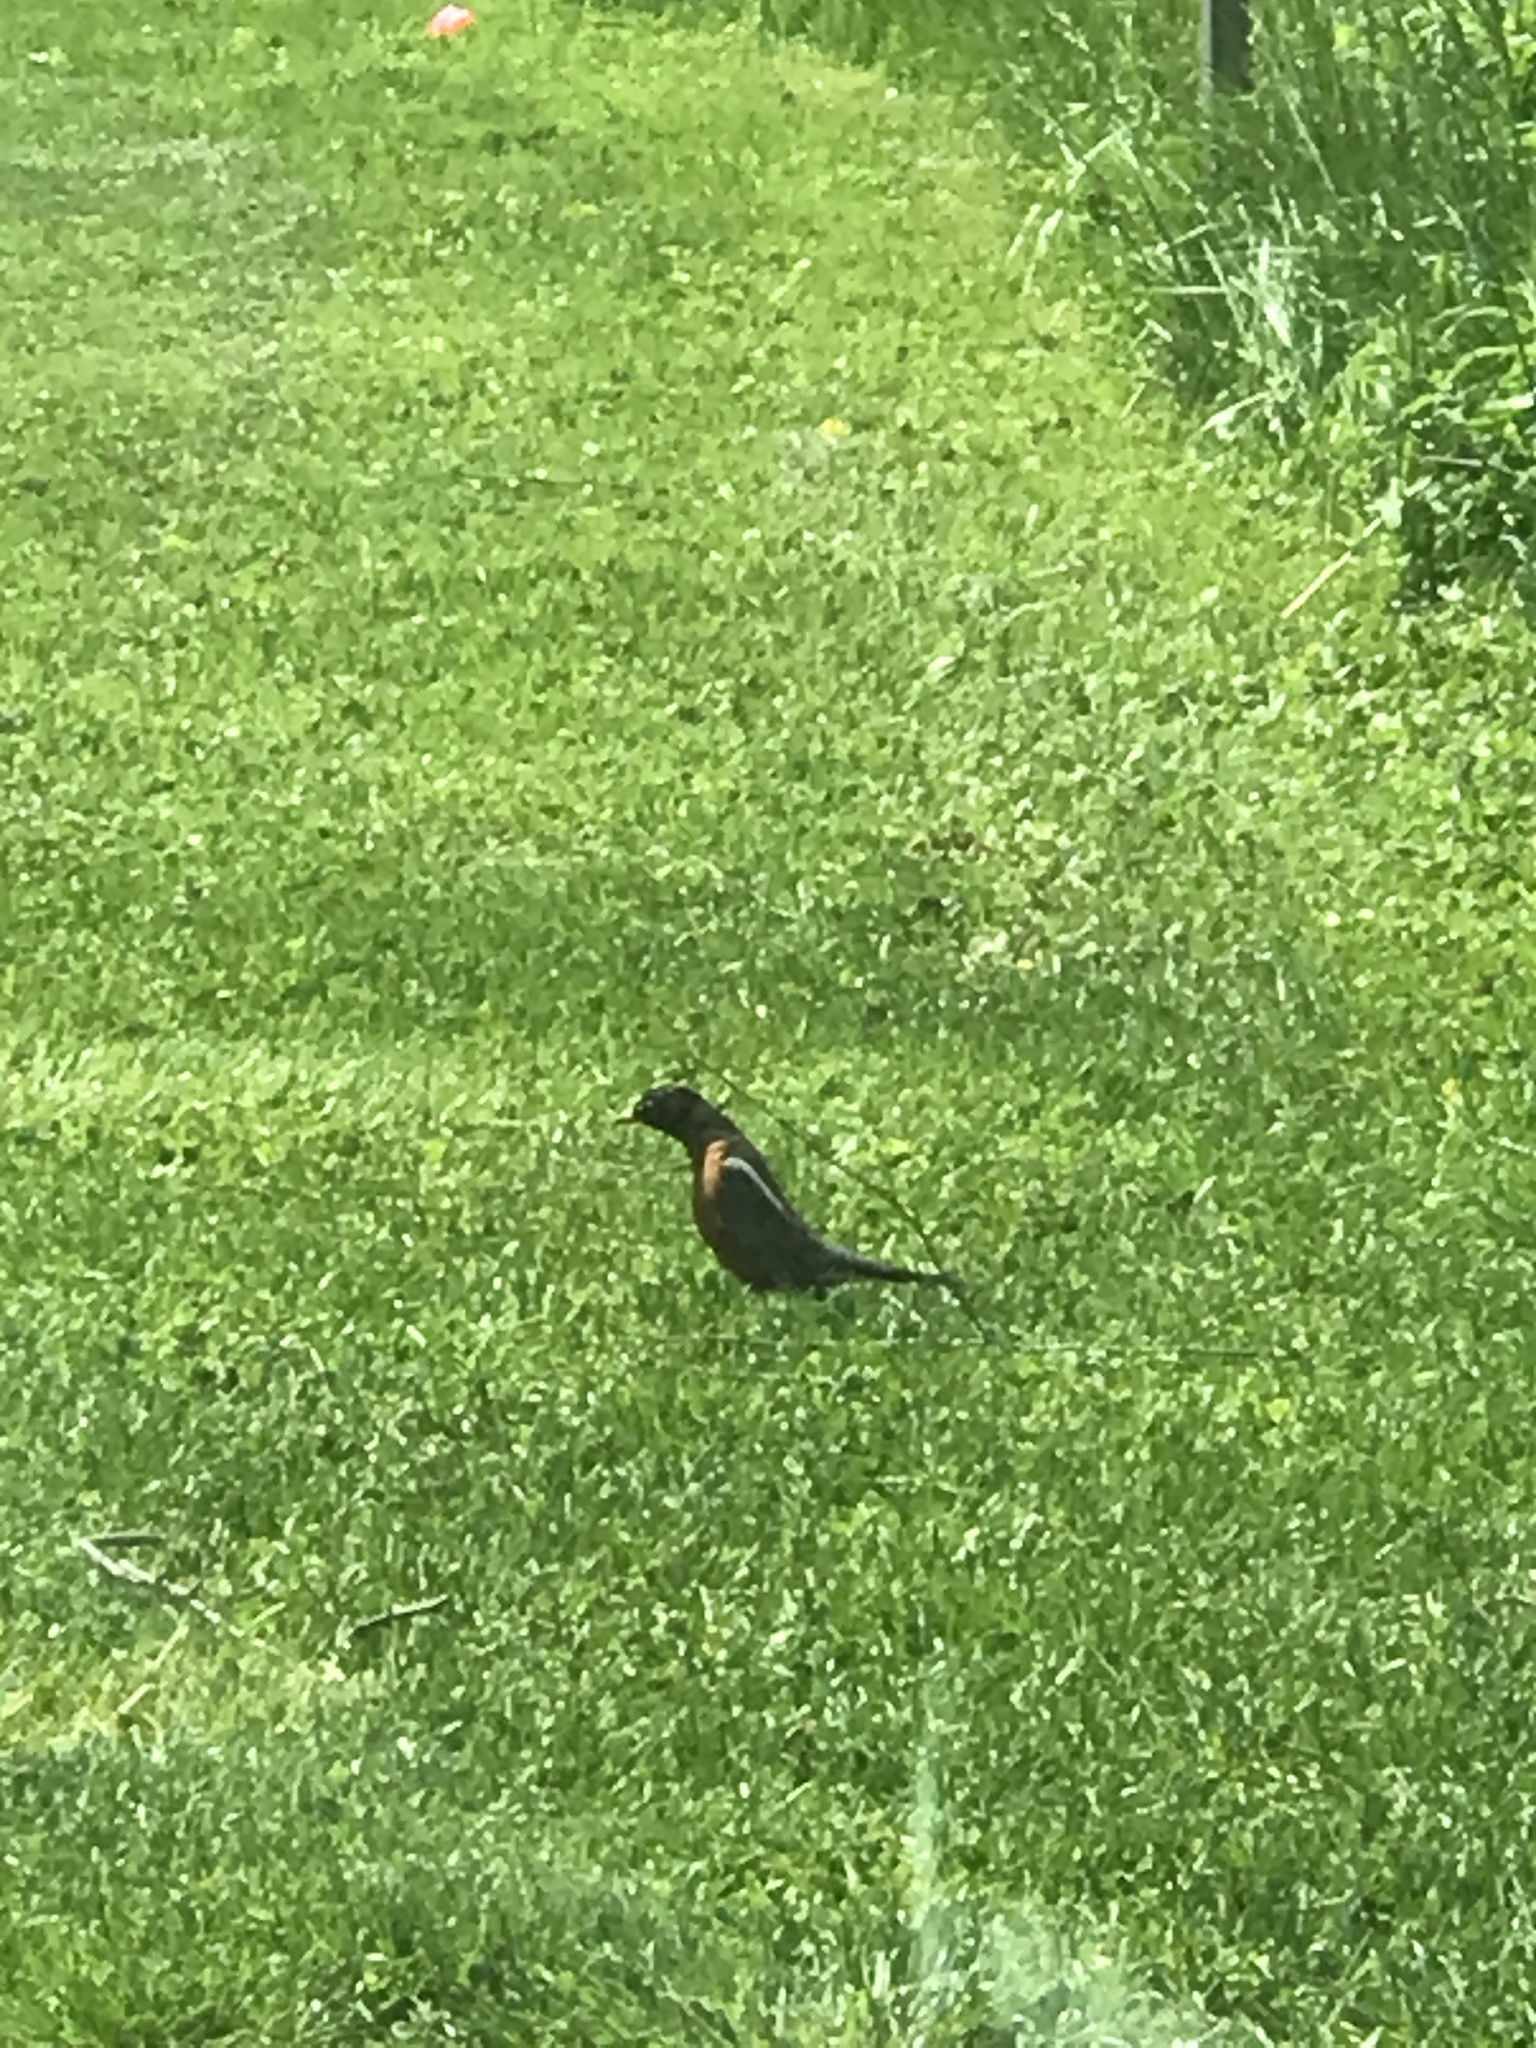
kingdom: Animalia
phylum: Chordata
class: Aves
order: Passeriformes
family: Turdidae
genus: Turdus
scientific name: Turdus migratorius
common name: American robin
